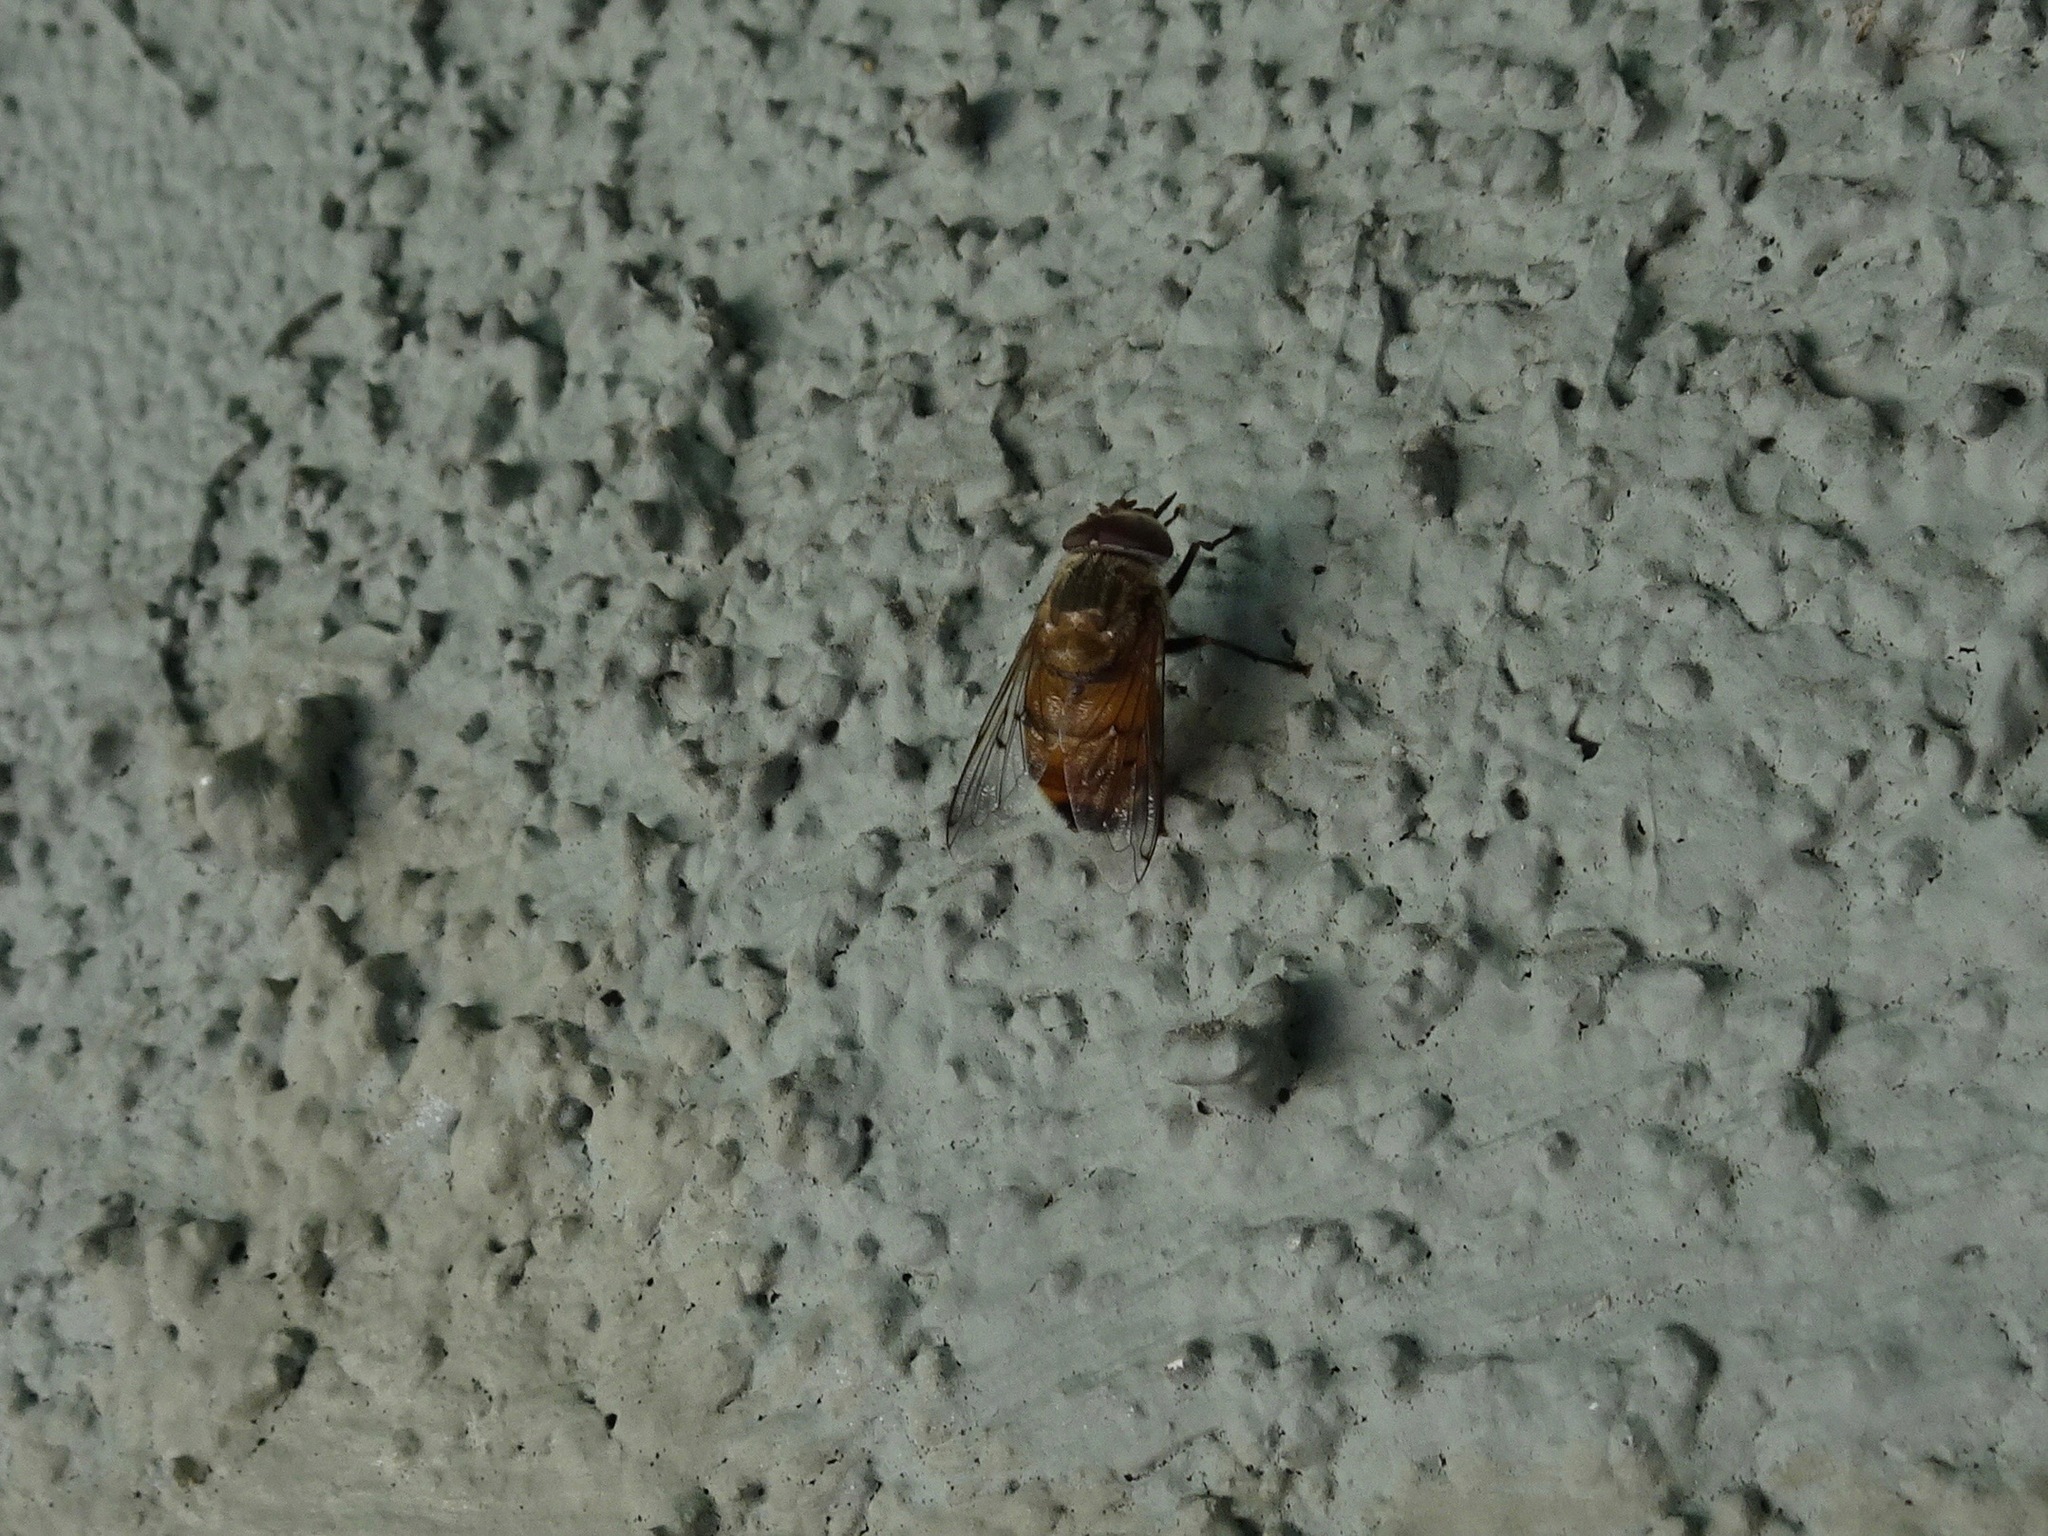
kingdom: Animalia
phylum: Arthropoda
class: Insecta
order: Diptera
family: Syrphidae
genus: Copestylum
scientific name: Copestylum haagii
